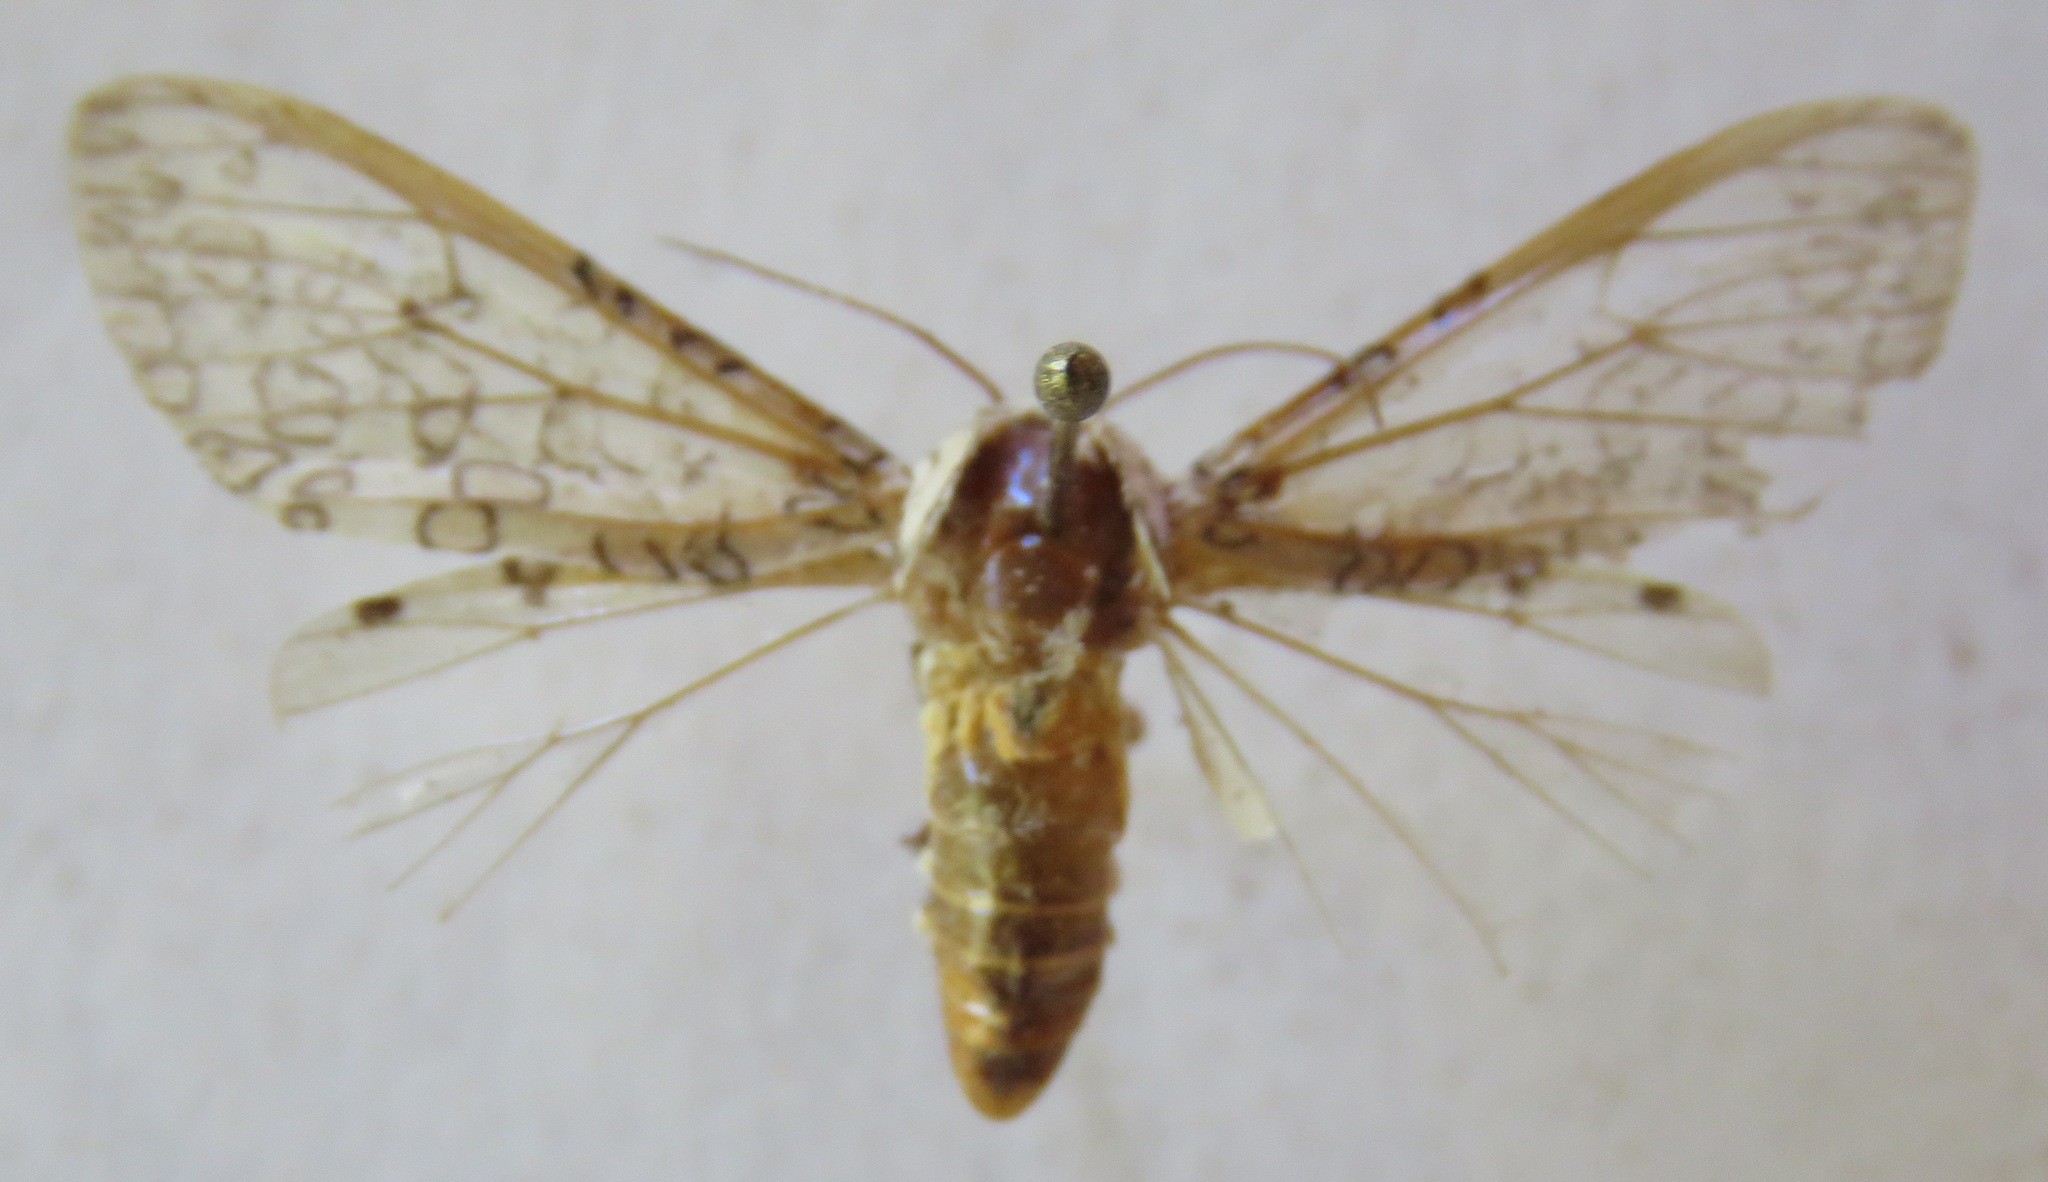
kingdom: Animalia
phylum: Arthropoda
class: Insecta
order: Lepidoptera
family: Erebidae
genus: Hypercompe
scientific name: Hypercompe albescens
